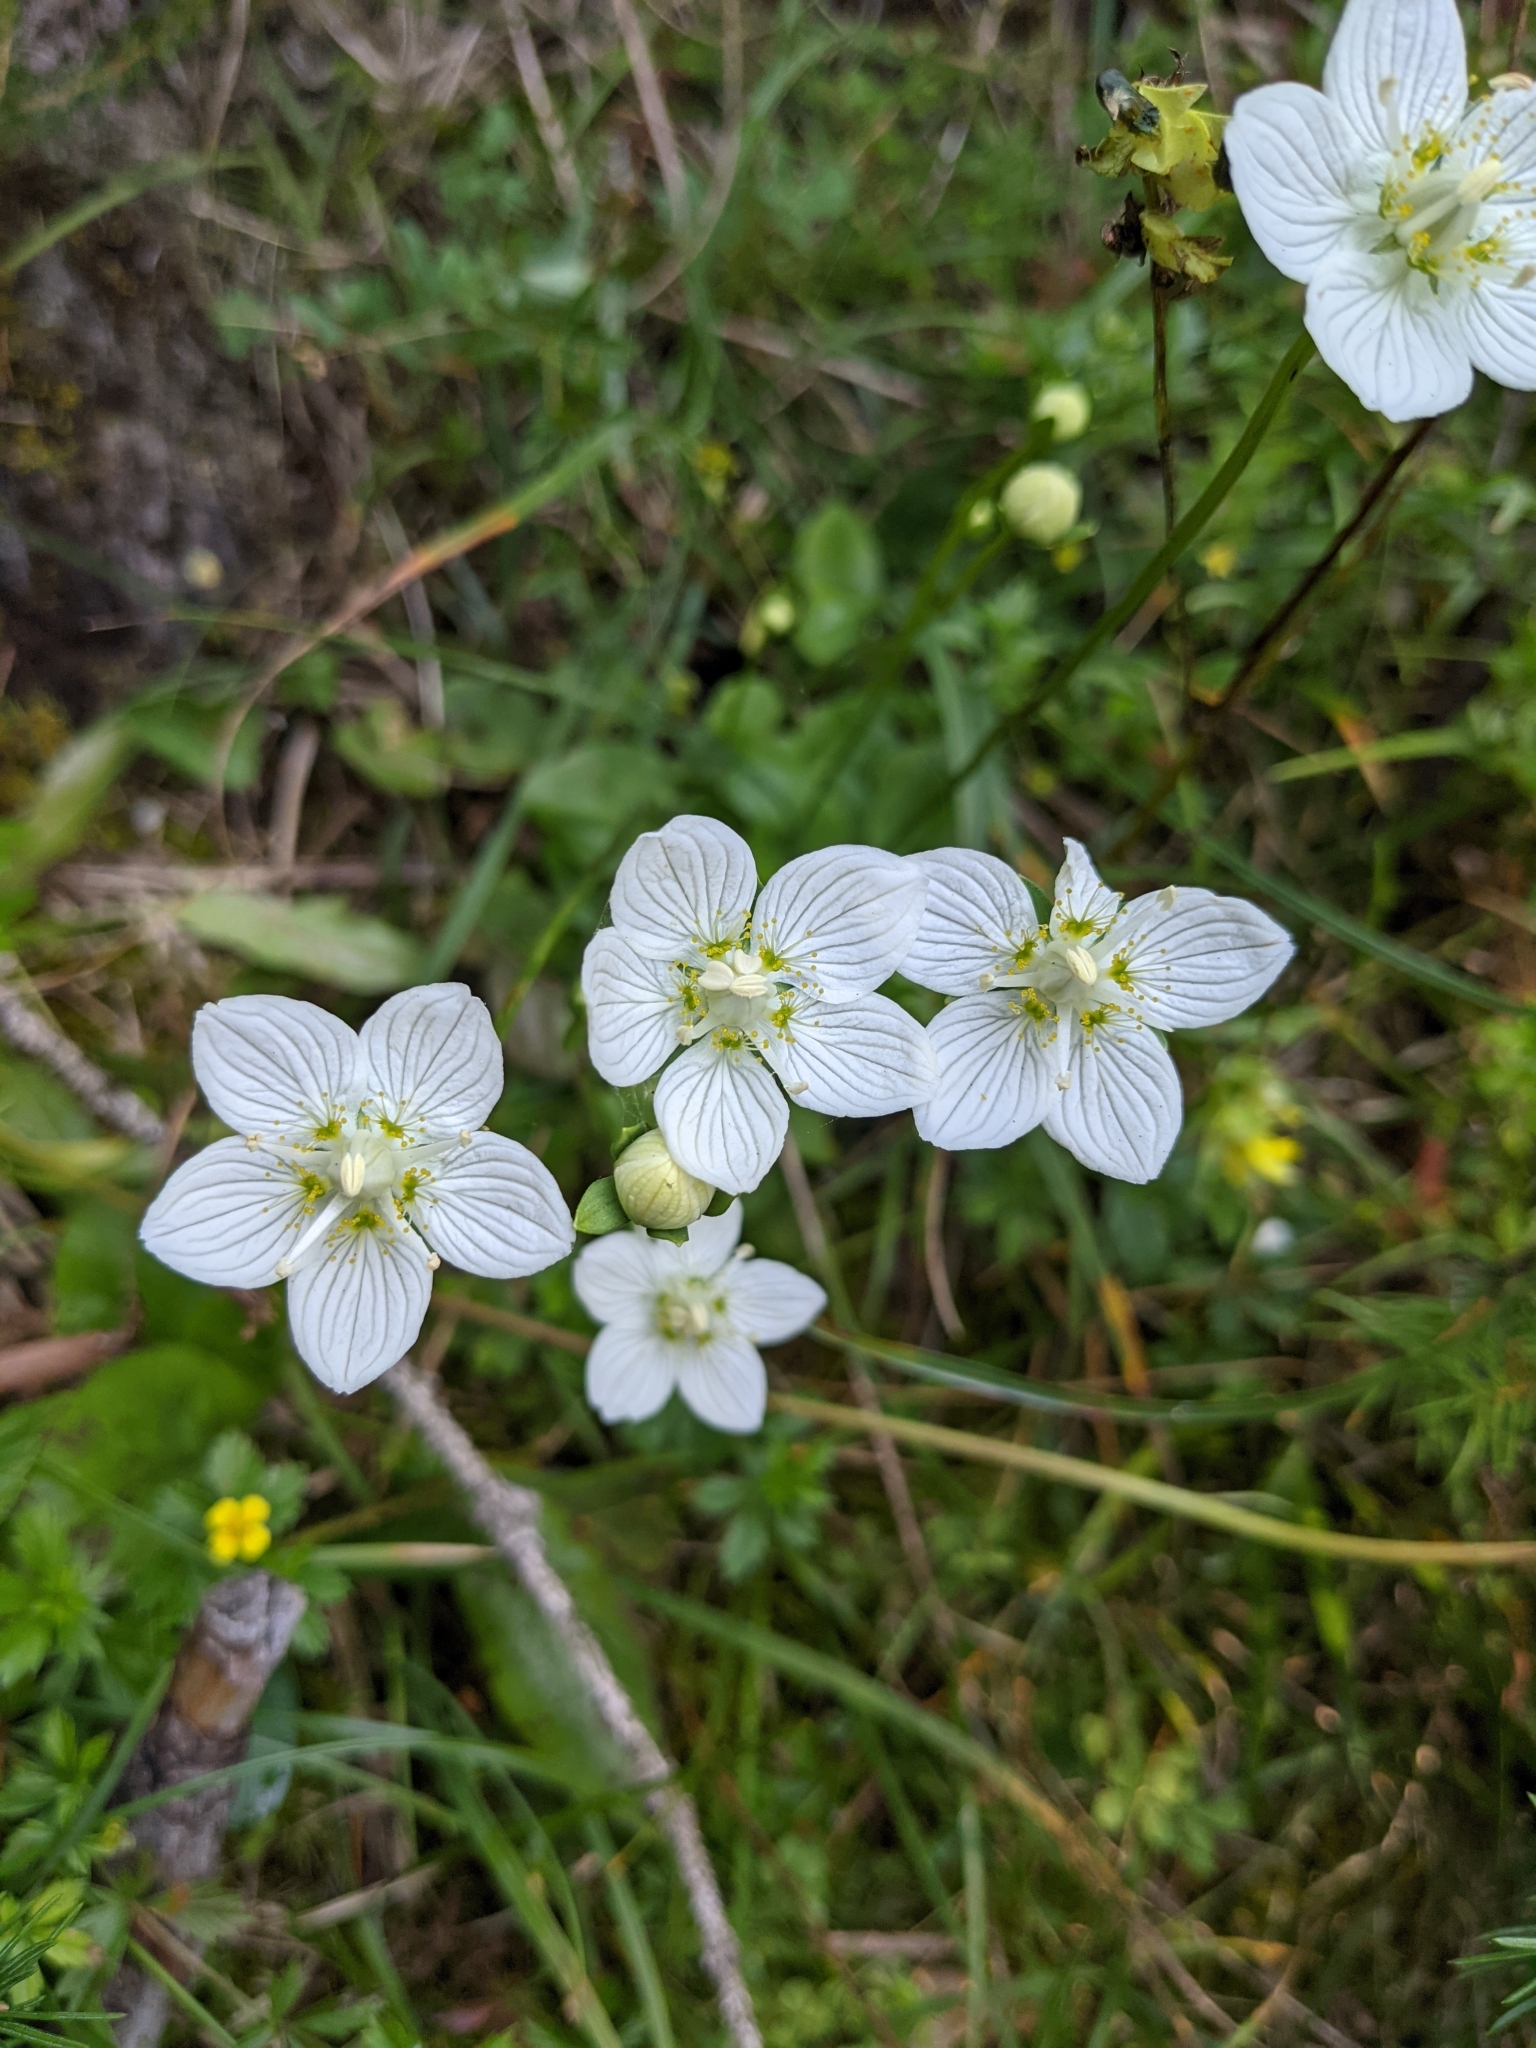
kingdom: Plantae
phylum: Tracheophyta
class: Magnoliopsida
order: Celastrales
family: Parnassiaceae
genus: Parnassia
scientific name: Parnassia palustris
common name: Grass-of-parnassus
